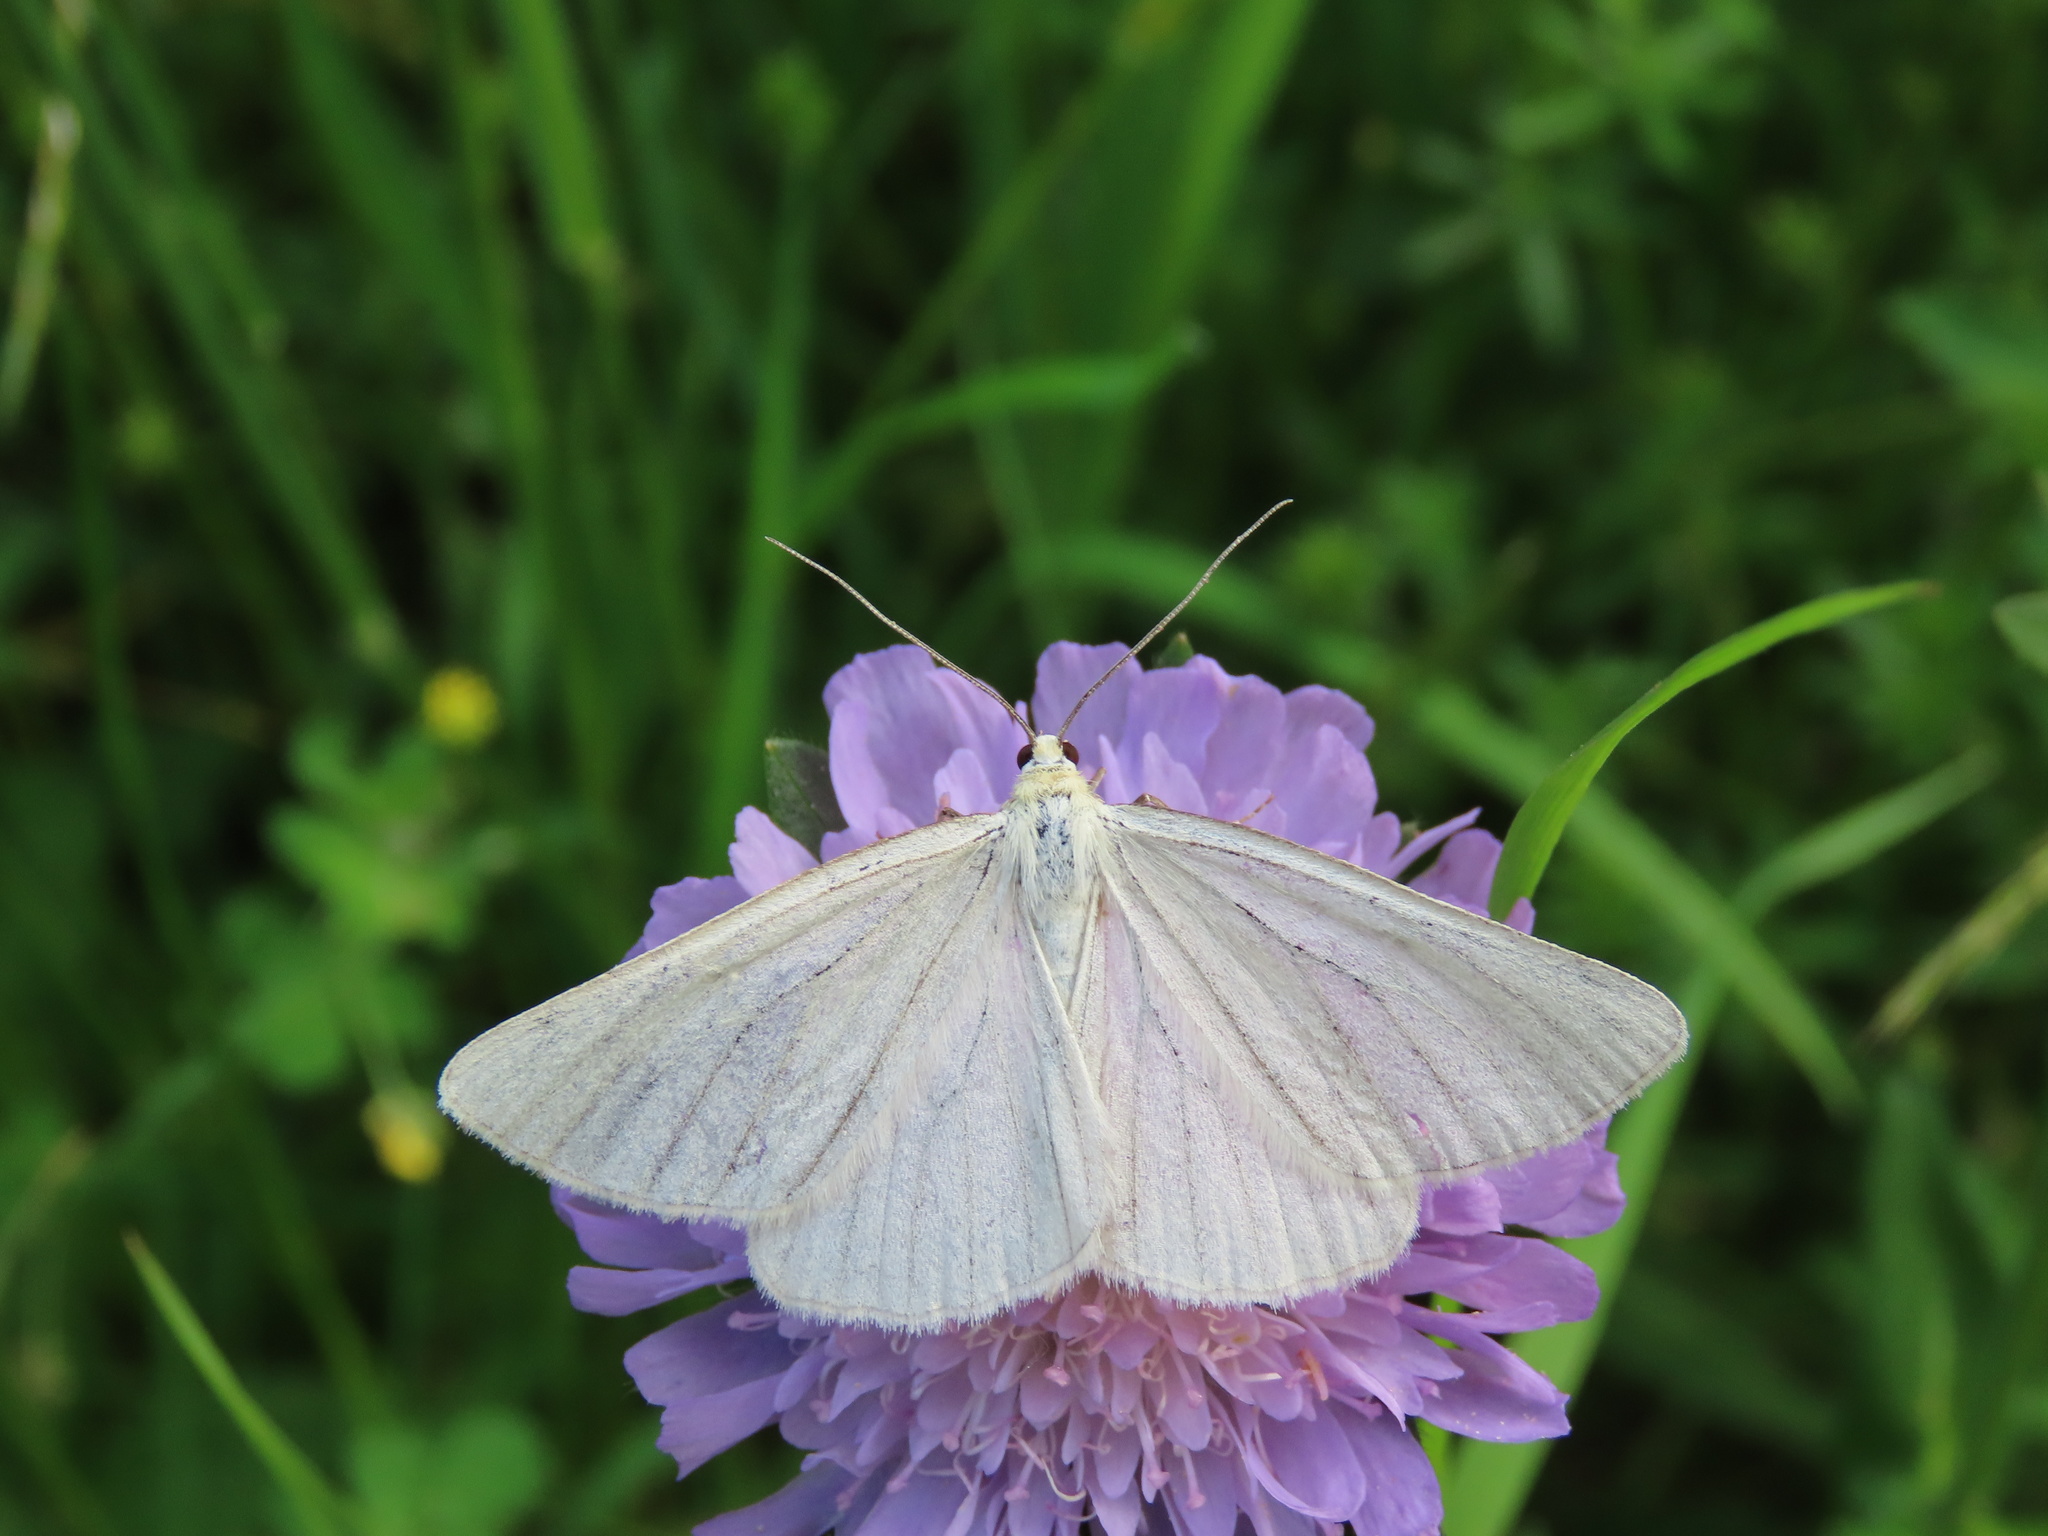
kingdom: Animalia
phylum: Arthropoda
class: Insecta
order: Lepidoptera
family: Geometridae
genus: Siona
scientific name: Siona lineata
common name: Black-veined moth
